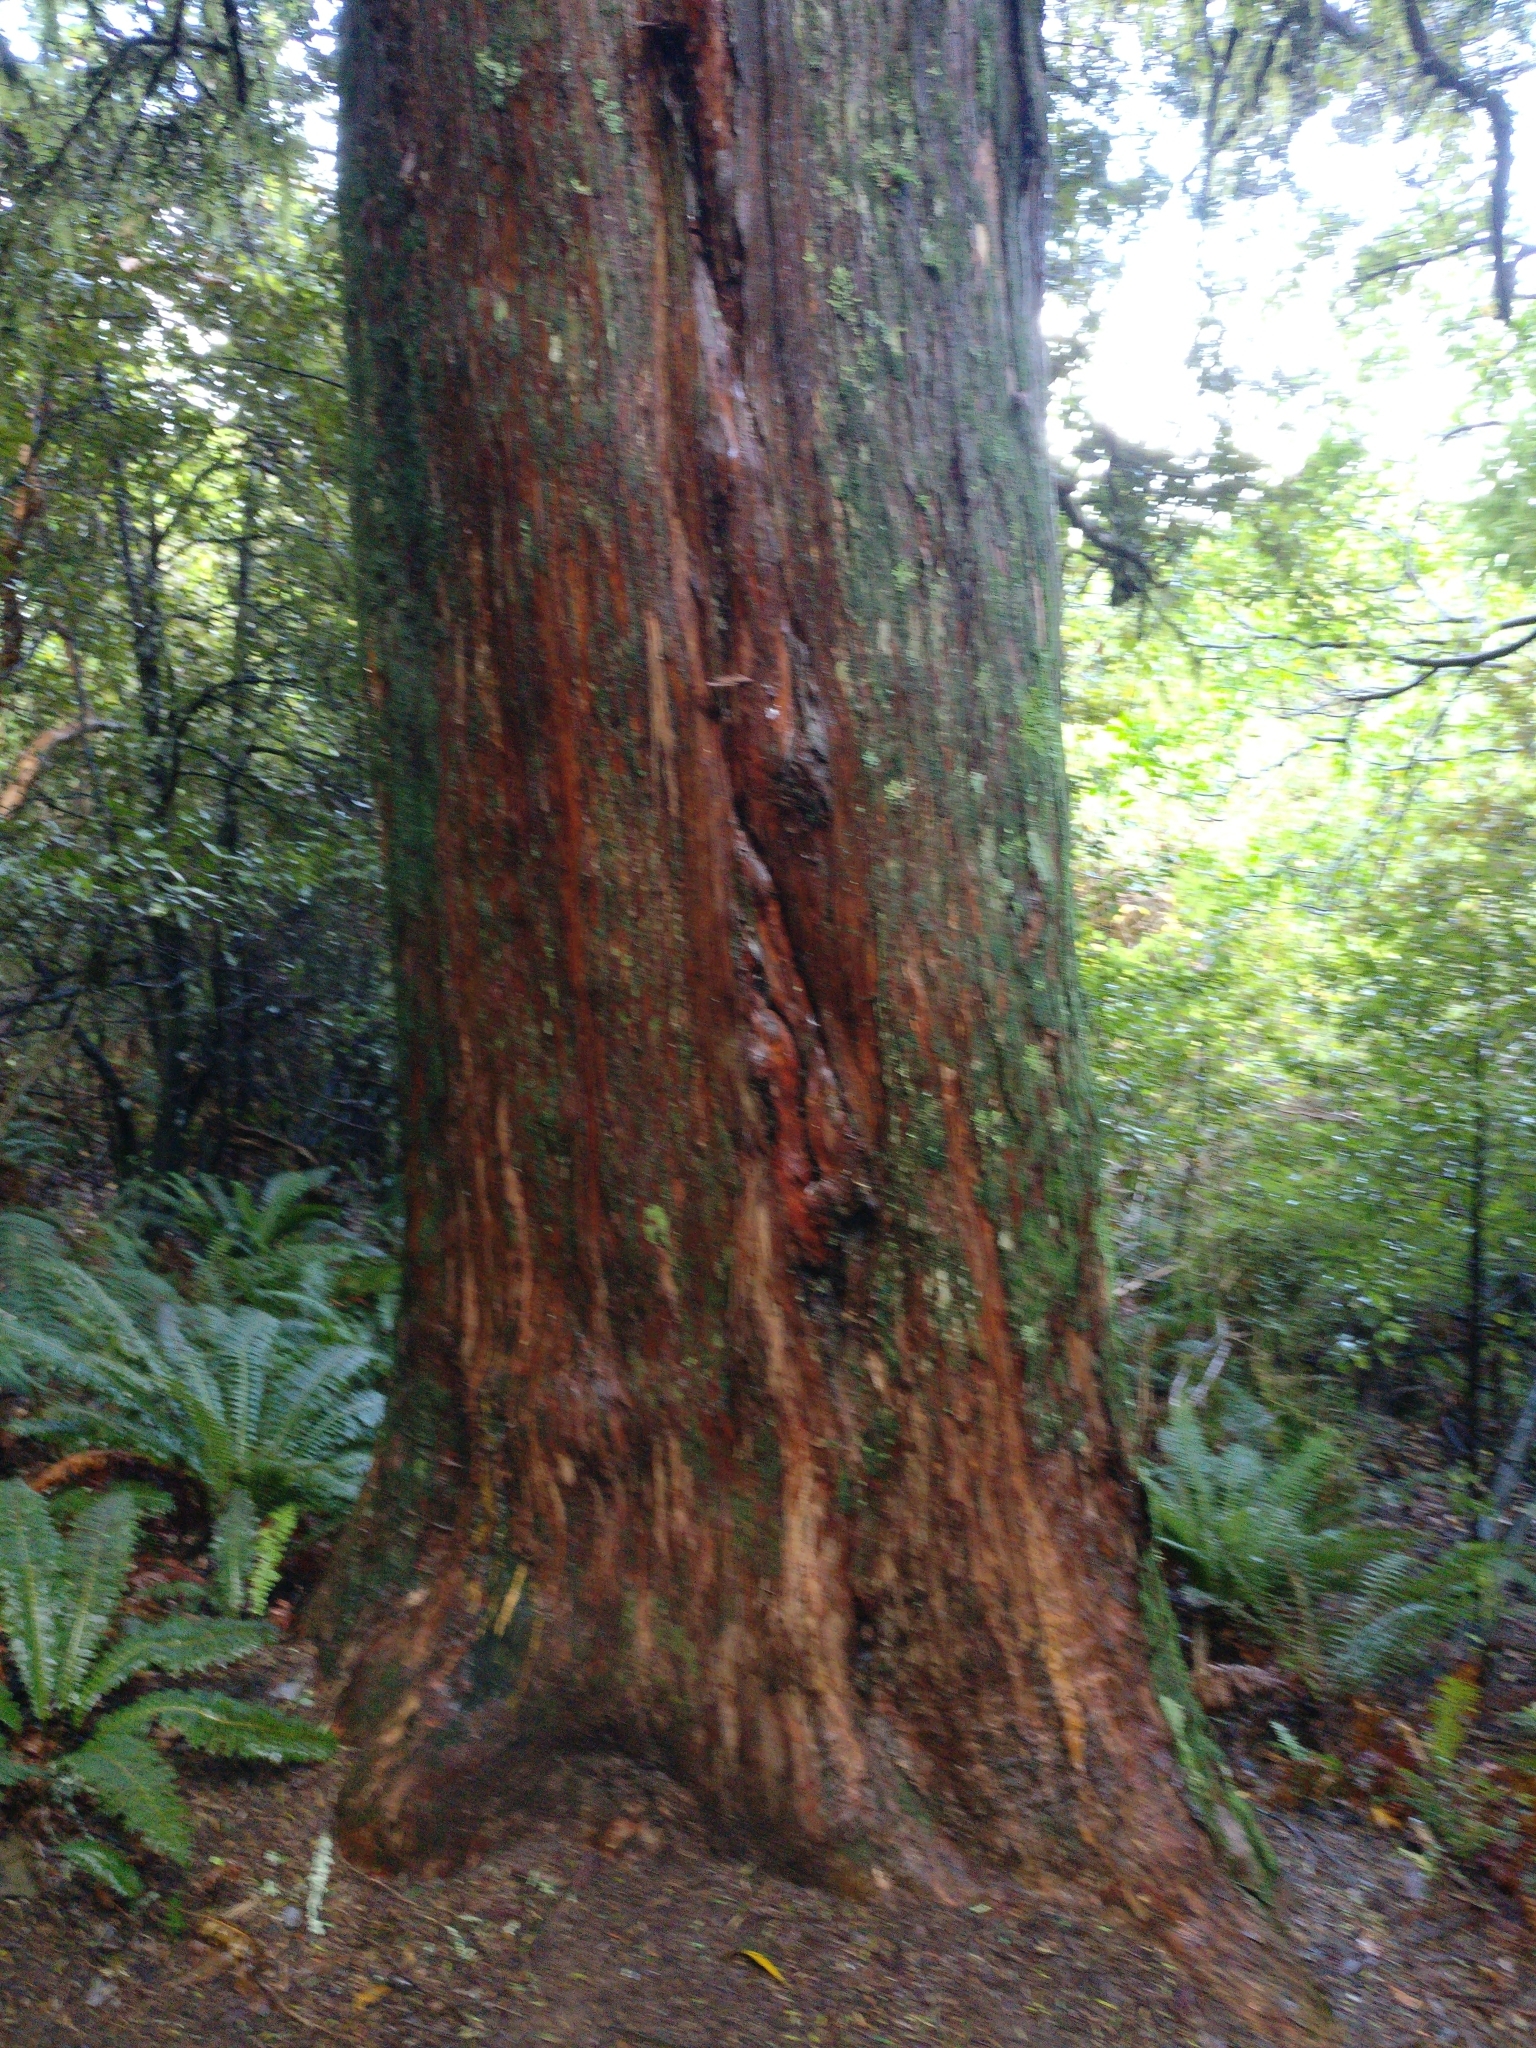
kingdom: Plantae
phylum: Tracheophyta
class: Pinopsida
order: Pinales
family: Podocarpaceae
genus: Podocarpus
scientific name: Podocarpus totara
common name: Totara
